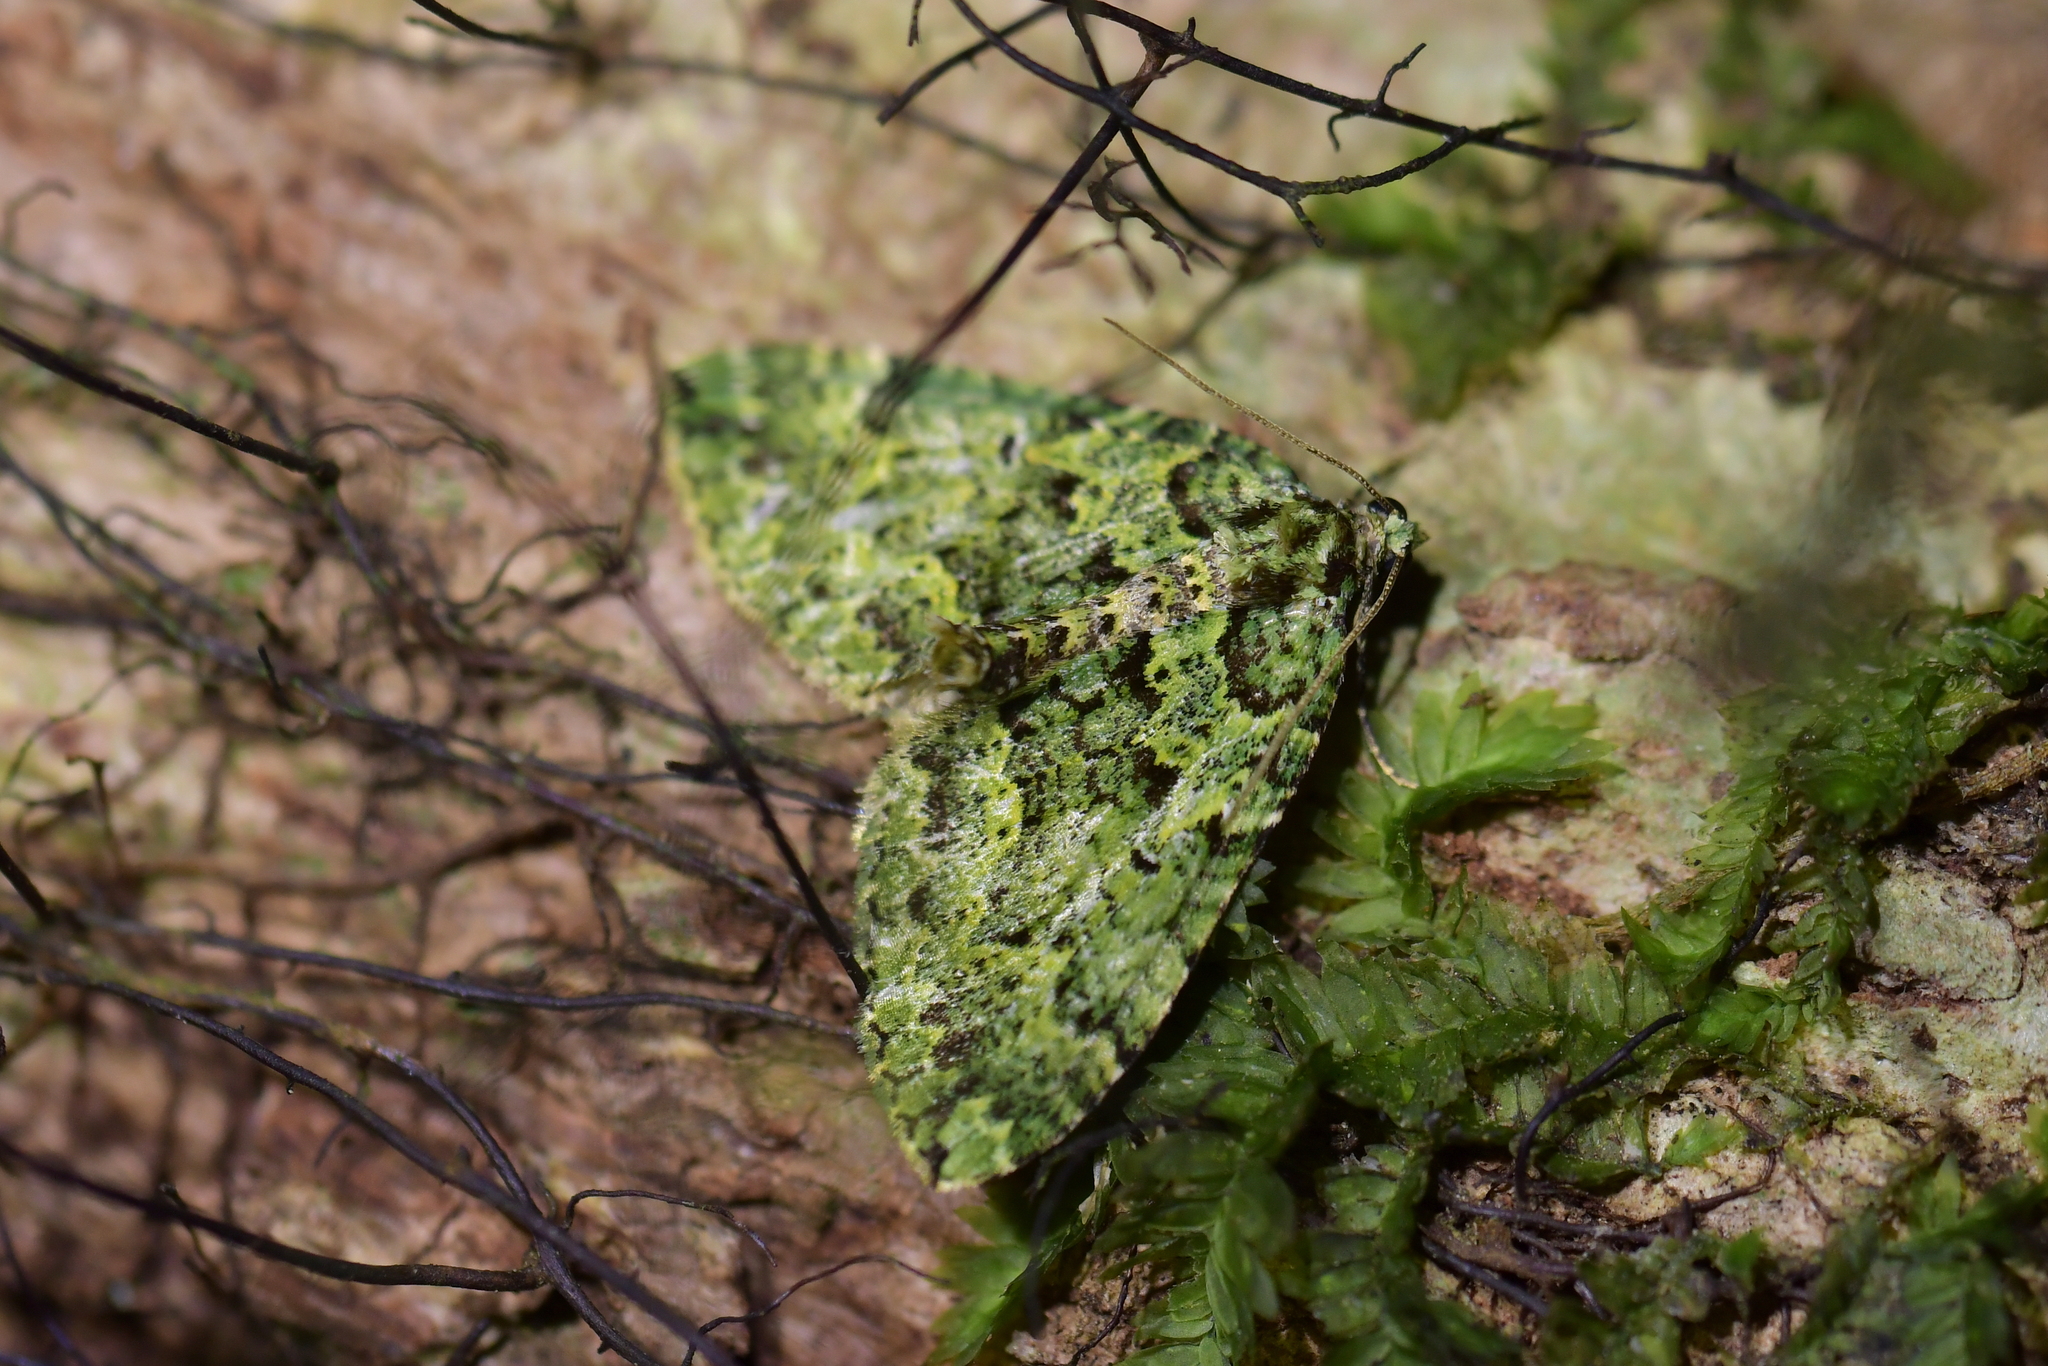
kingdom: Animalia
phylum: Arthropoda
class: Insecta
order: Lepidoptera
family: Geometridae
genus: Austrocidaria
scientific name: Austrocidaria callichlora
